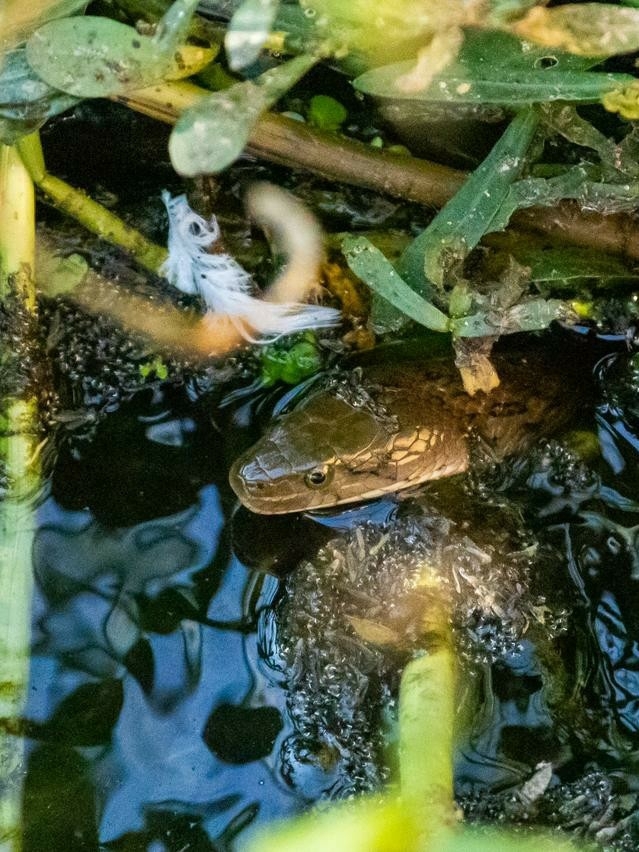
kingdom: Animalia
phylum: Chordata
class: Squamata
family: Colubridae
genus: Fowlea
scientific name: Fowlea piscator
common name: Asiatic water snake
